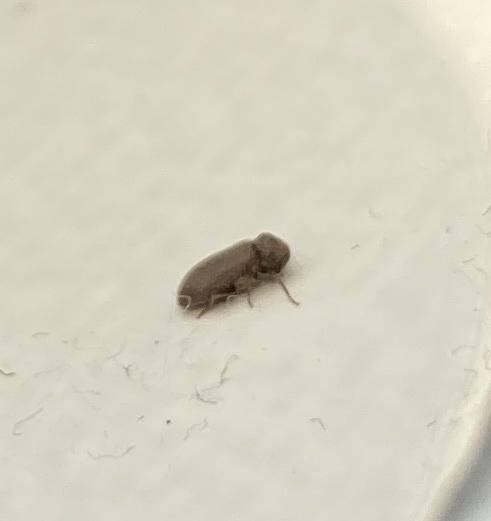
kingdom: Animalia
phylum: Arthropoda
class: Insecta
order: Coleoptera
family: Anobiidae
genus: Anobium
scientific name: Anobium punctatum
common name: Furniture beetle
